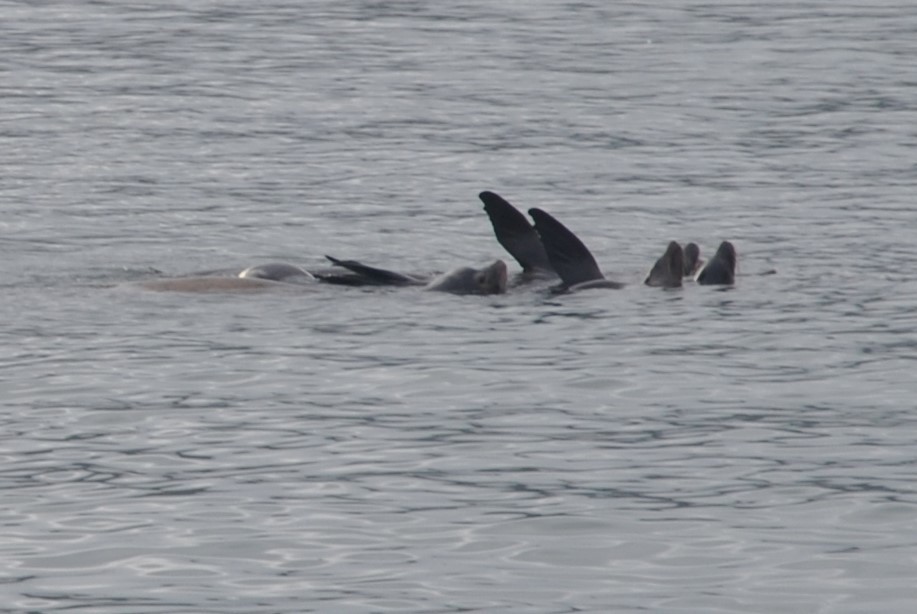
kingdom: Animalia
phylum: Chordata
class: Mammalia
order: Carnivora
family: Otariidae
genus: Zalophus
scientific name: Zalophus californianus
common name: California sea lion
